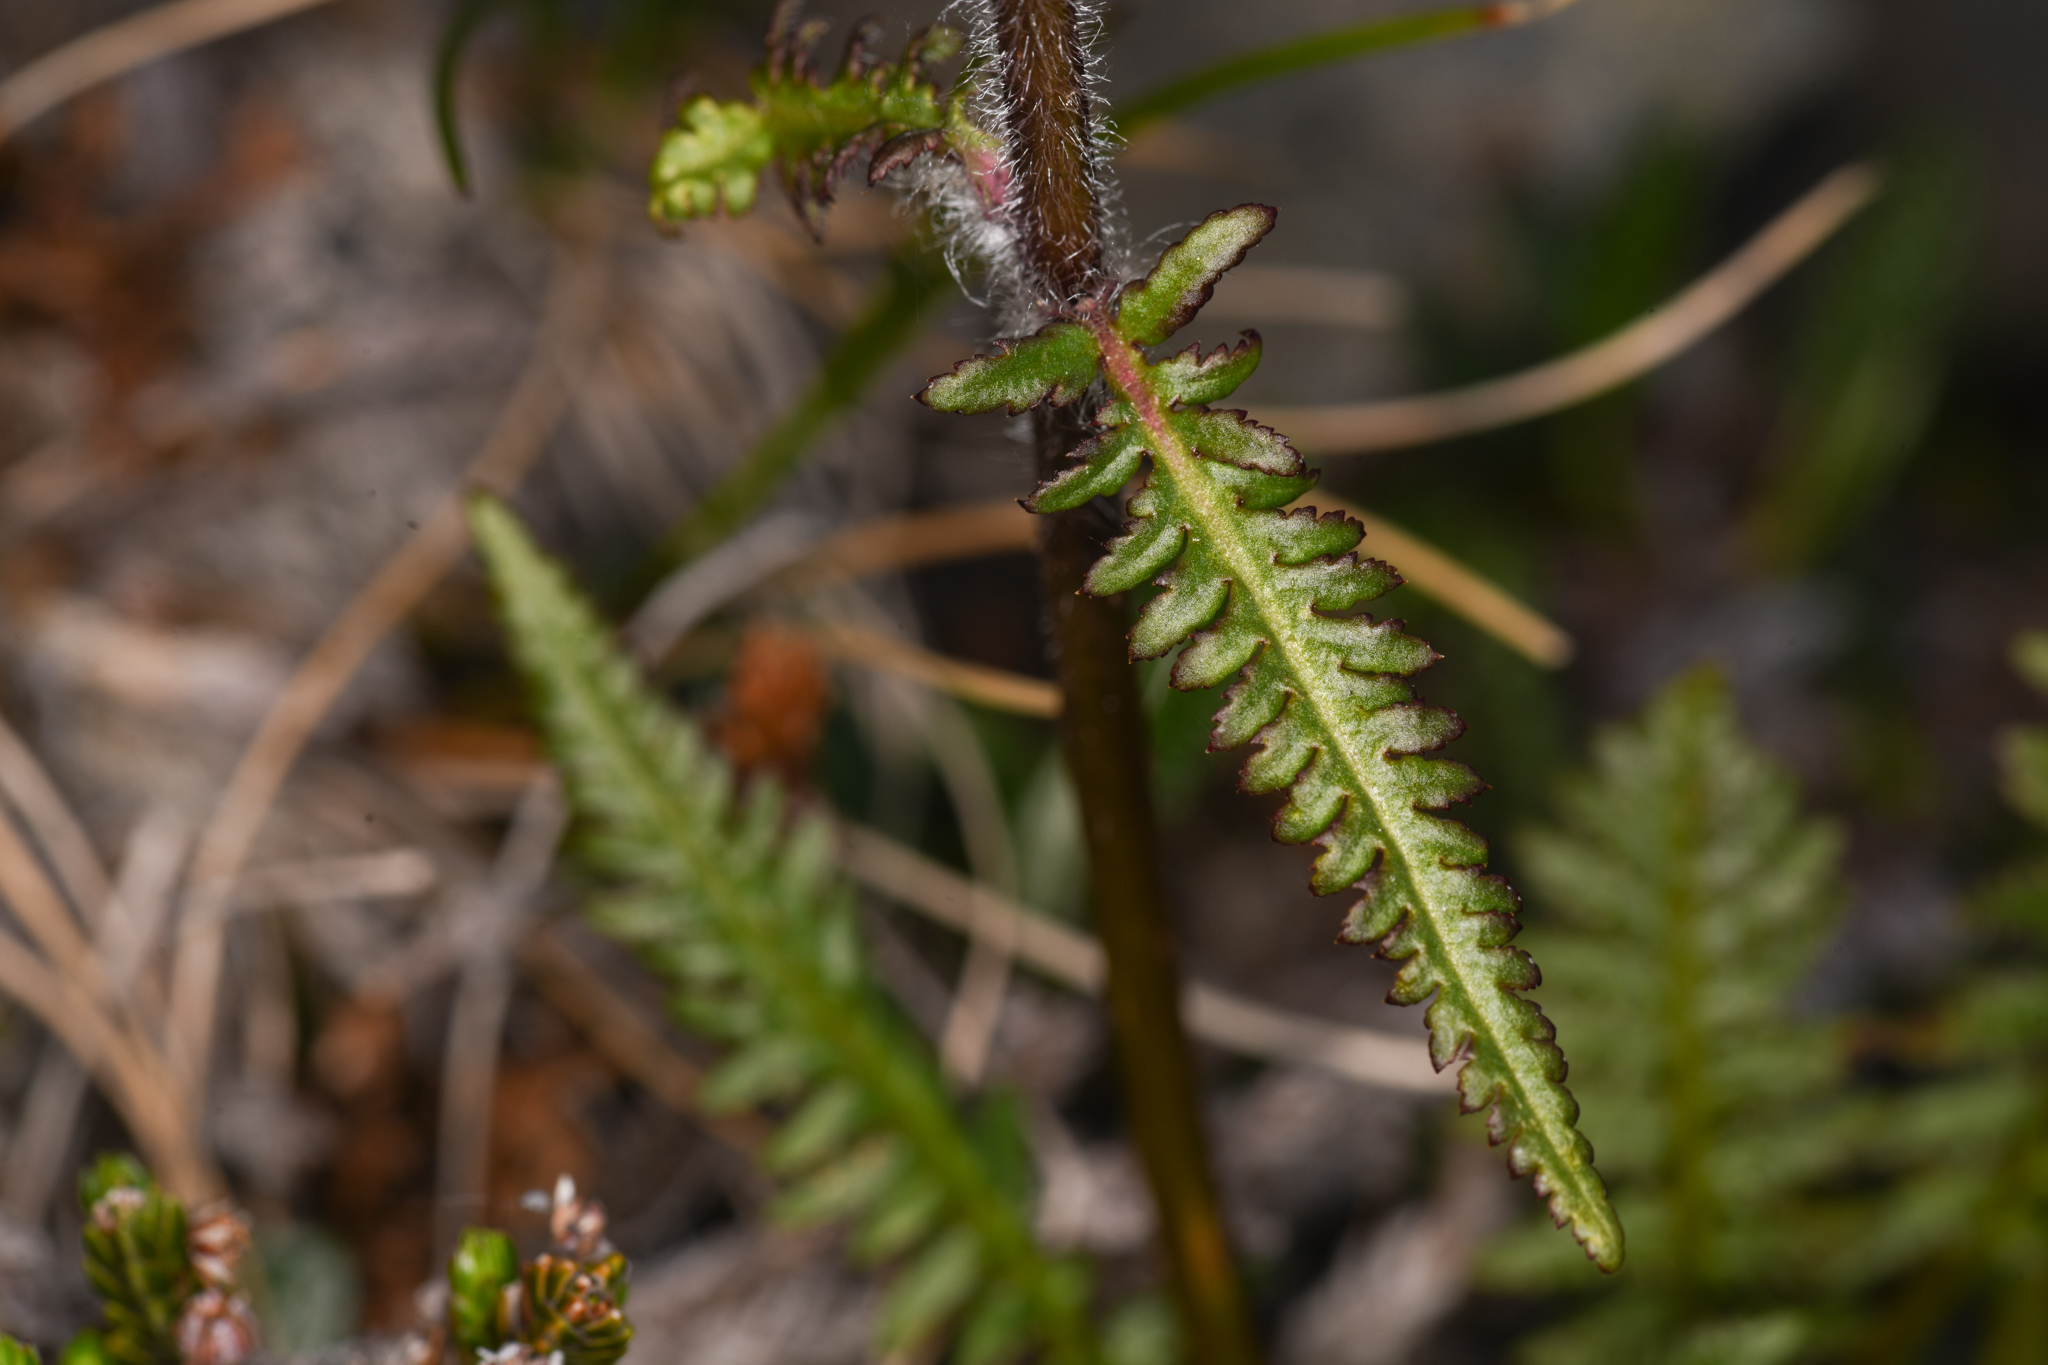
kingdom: Plantae
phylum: Tracheophyta
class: Magnoliopsida
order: Lamiales
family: Orobanchaceae
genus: Pedicularis
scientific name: Pedicularis sudetica
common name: Sudeten lousewort
